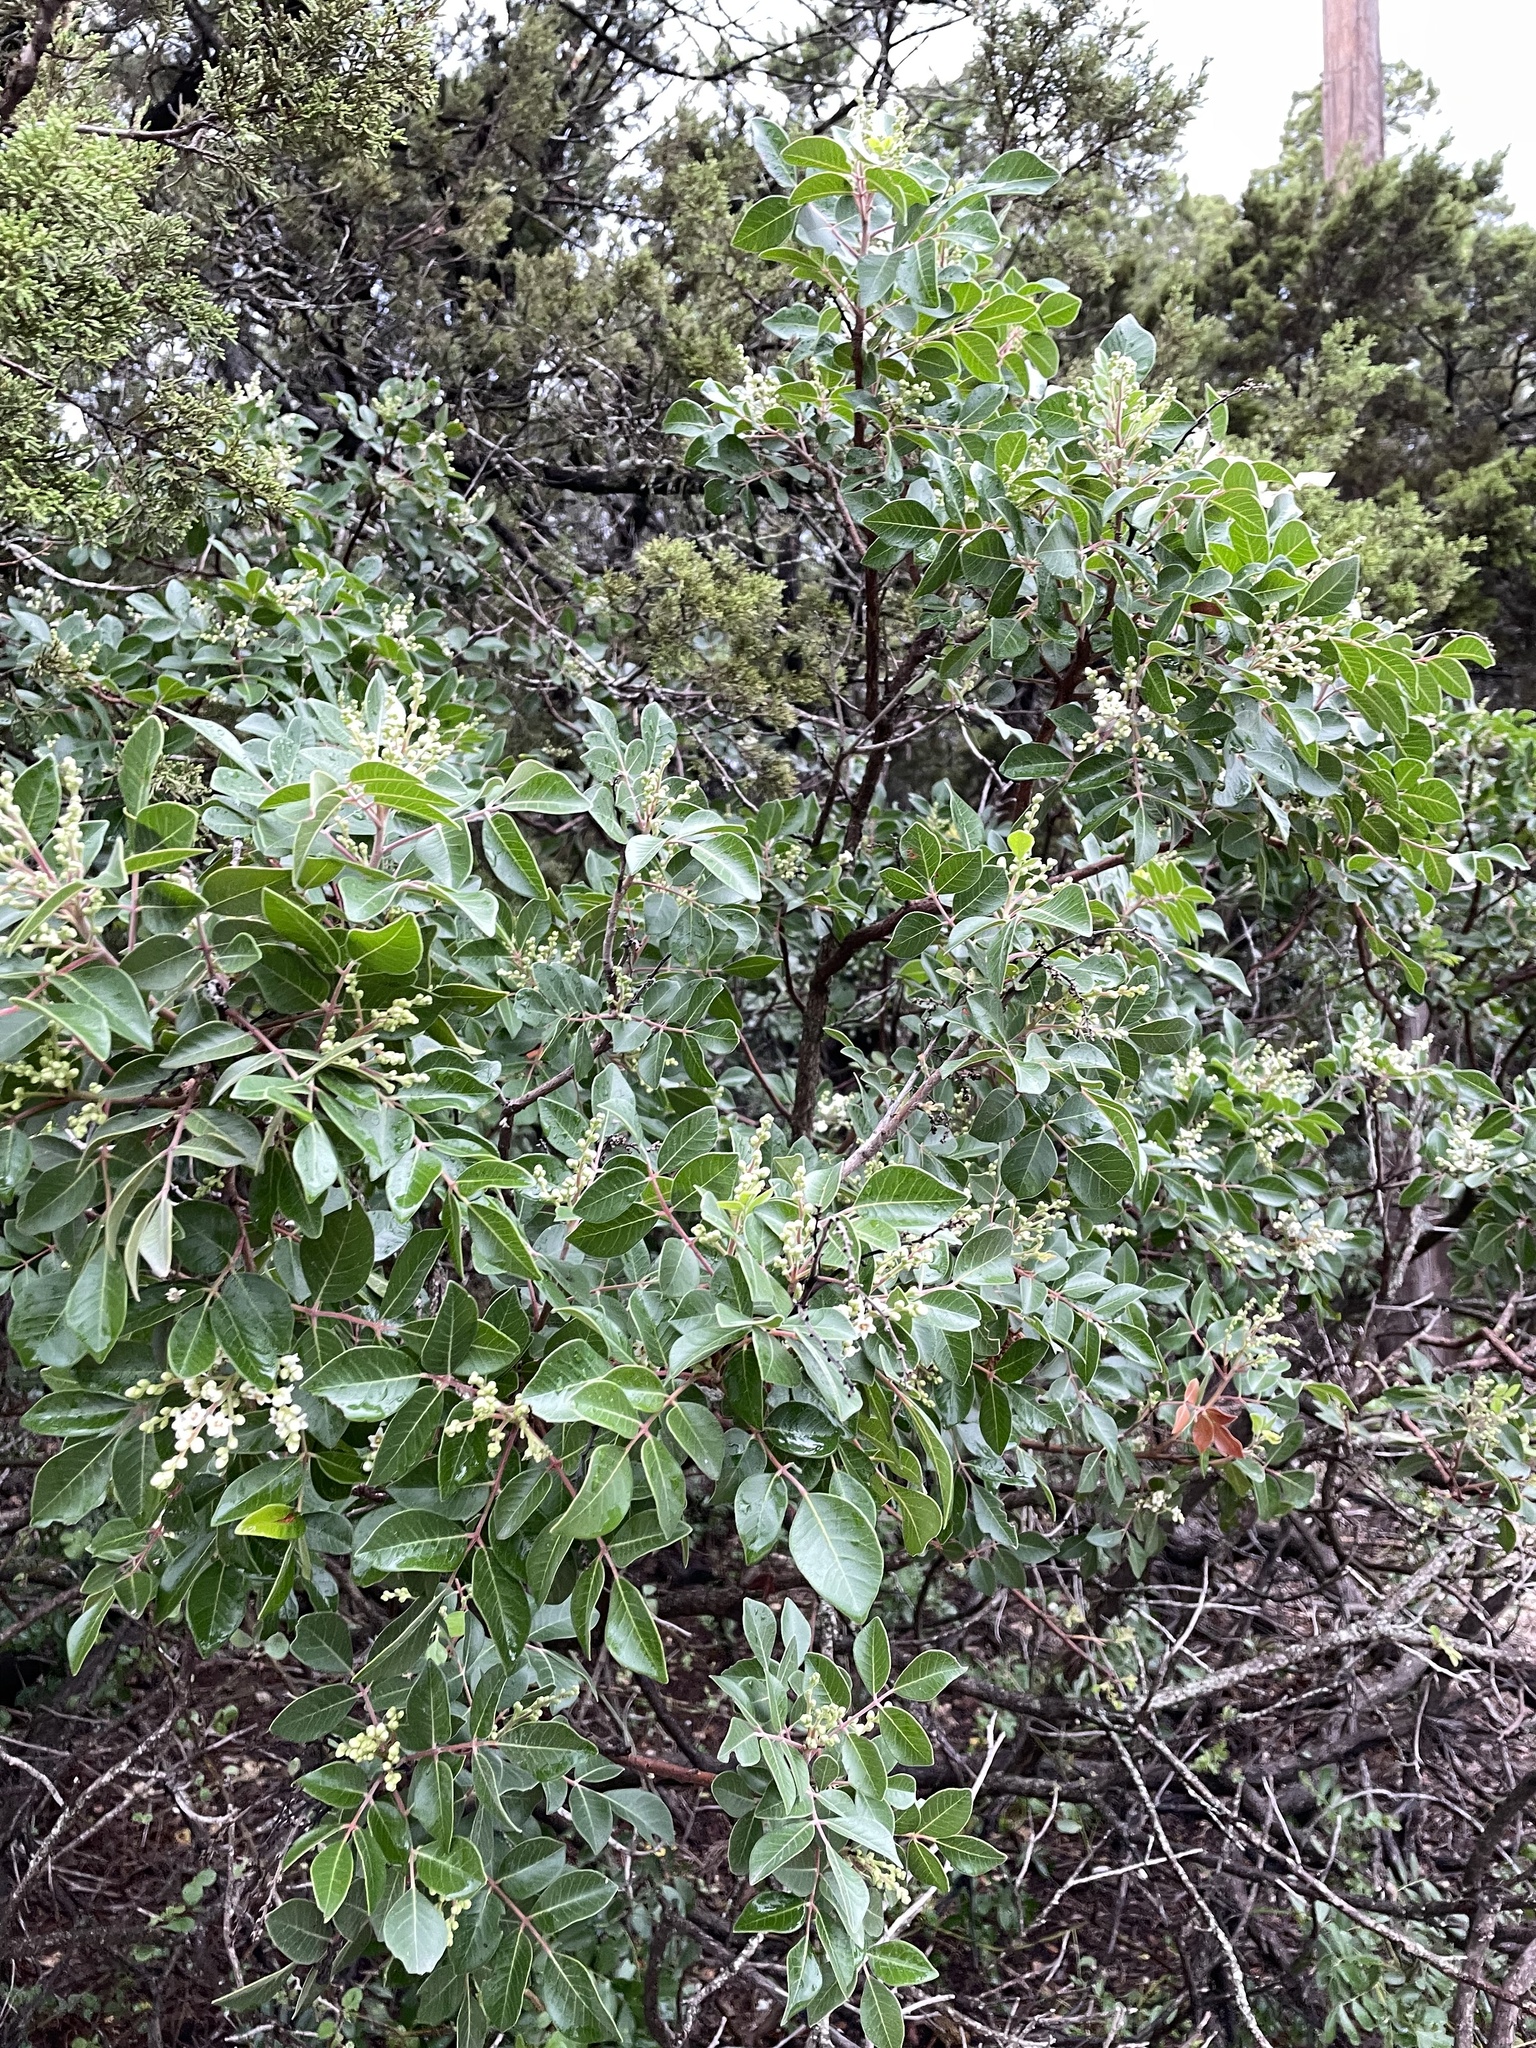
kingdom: Plantae
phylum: Tracheophyta
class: Magnoliopsida
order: Sapindales
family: Anacardiaceae
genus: Rhus
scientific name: Rhus virens
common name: Evergreen sumac
